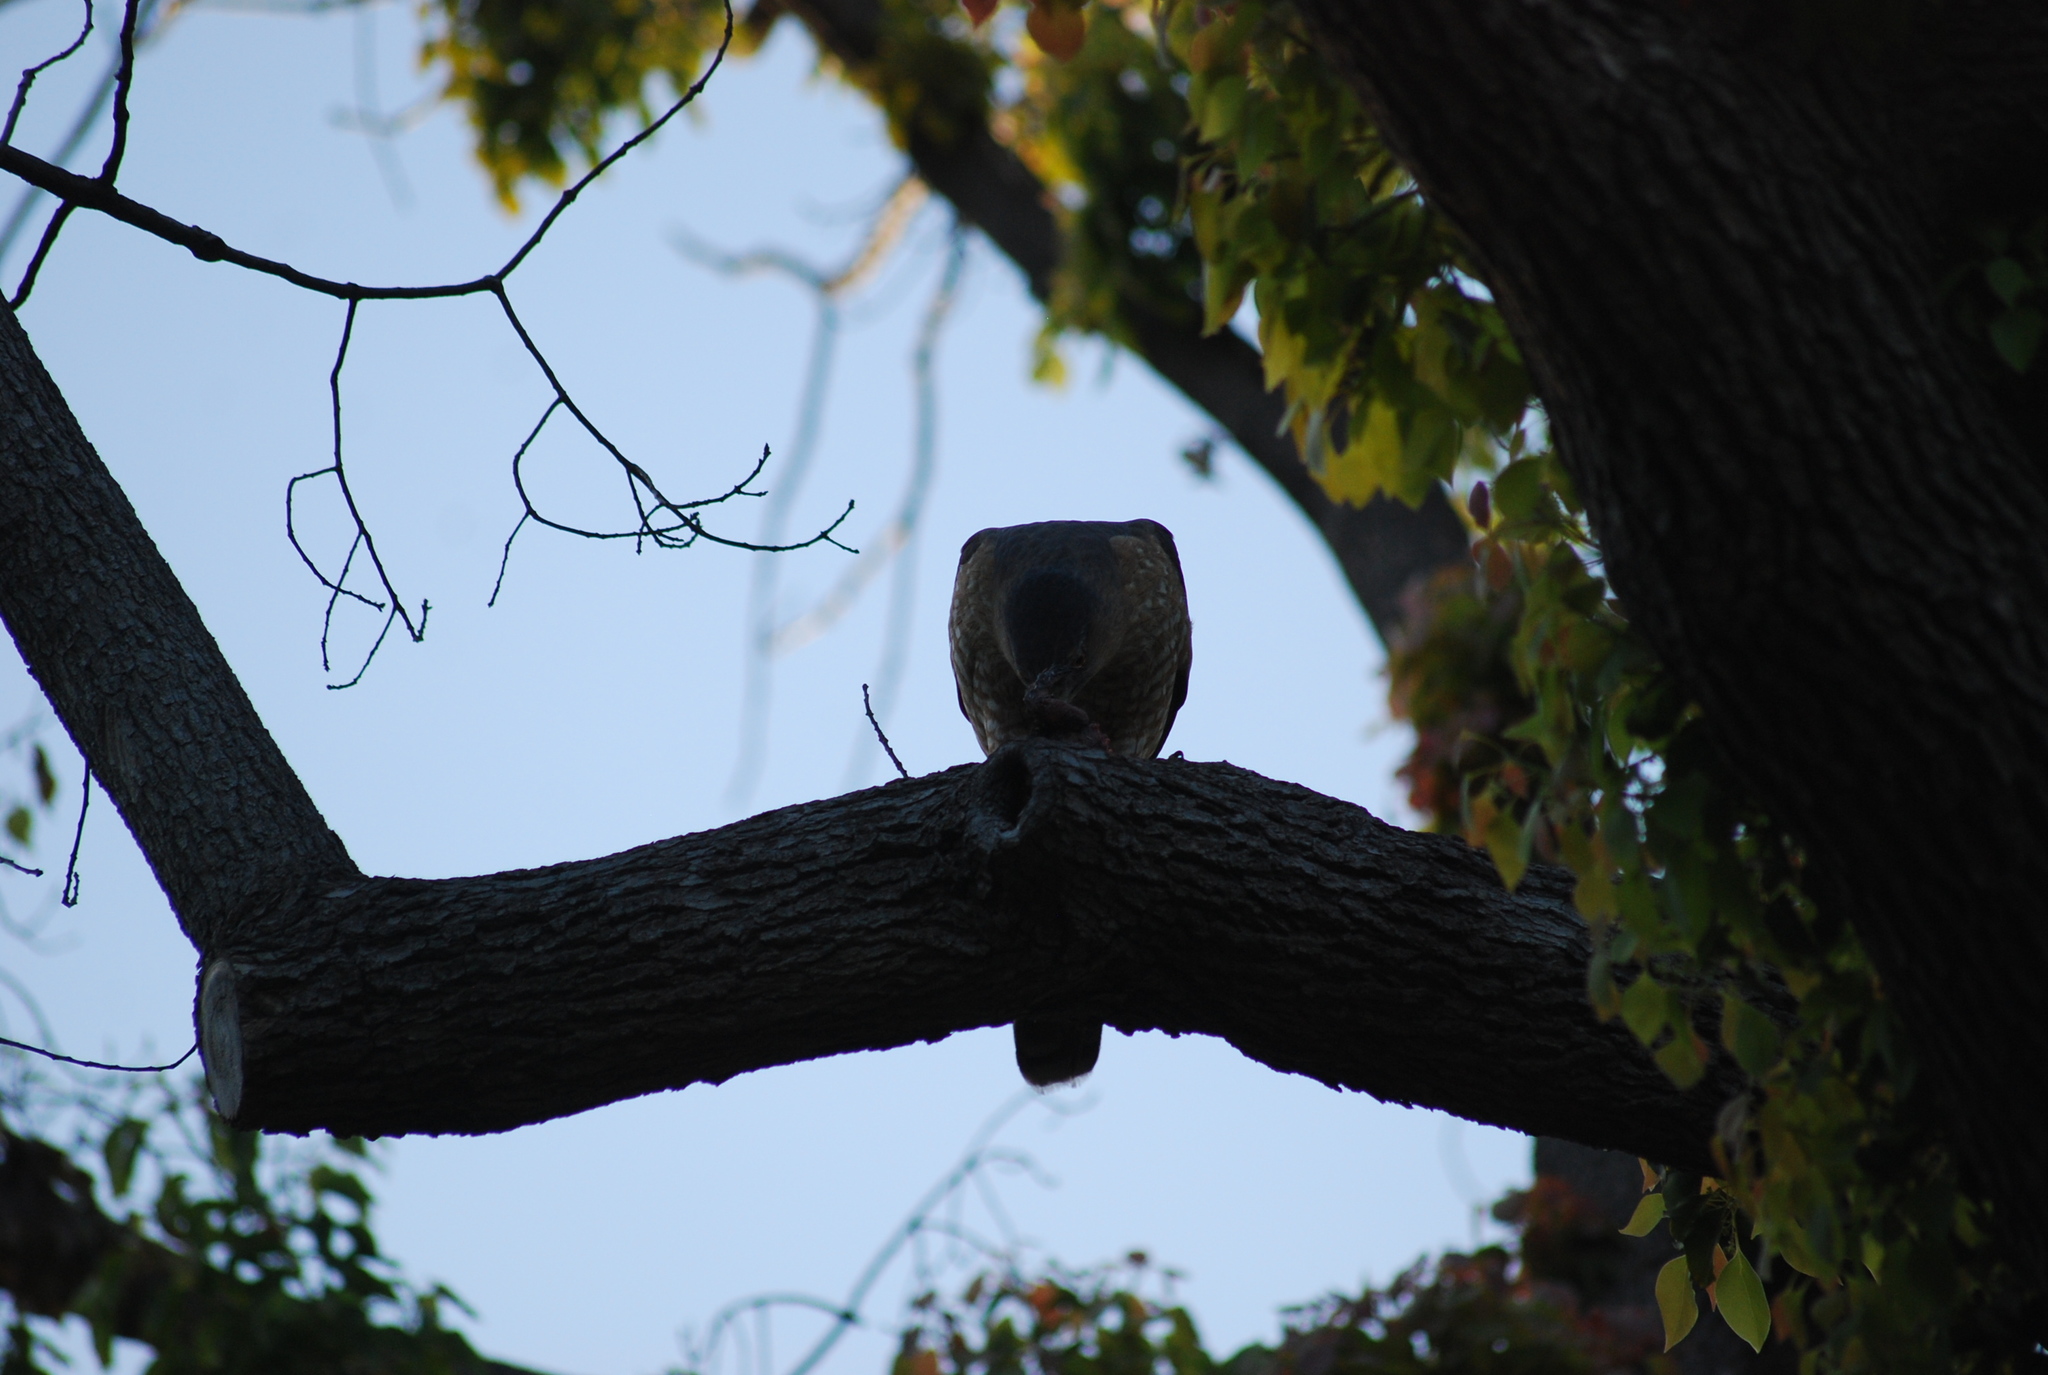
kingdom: Animalia
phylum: Chordata
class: Aves
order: Accipitriformes
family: Accipitridae
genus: Accipiter
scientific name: Accipiter cooperii
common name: Cooper's hawk
